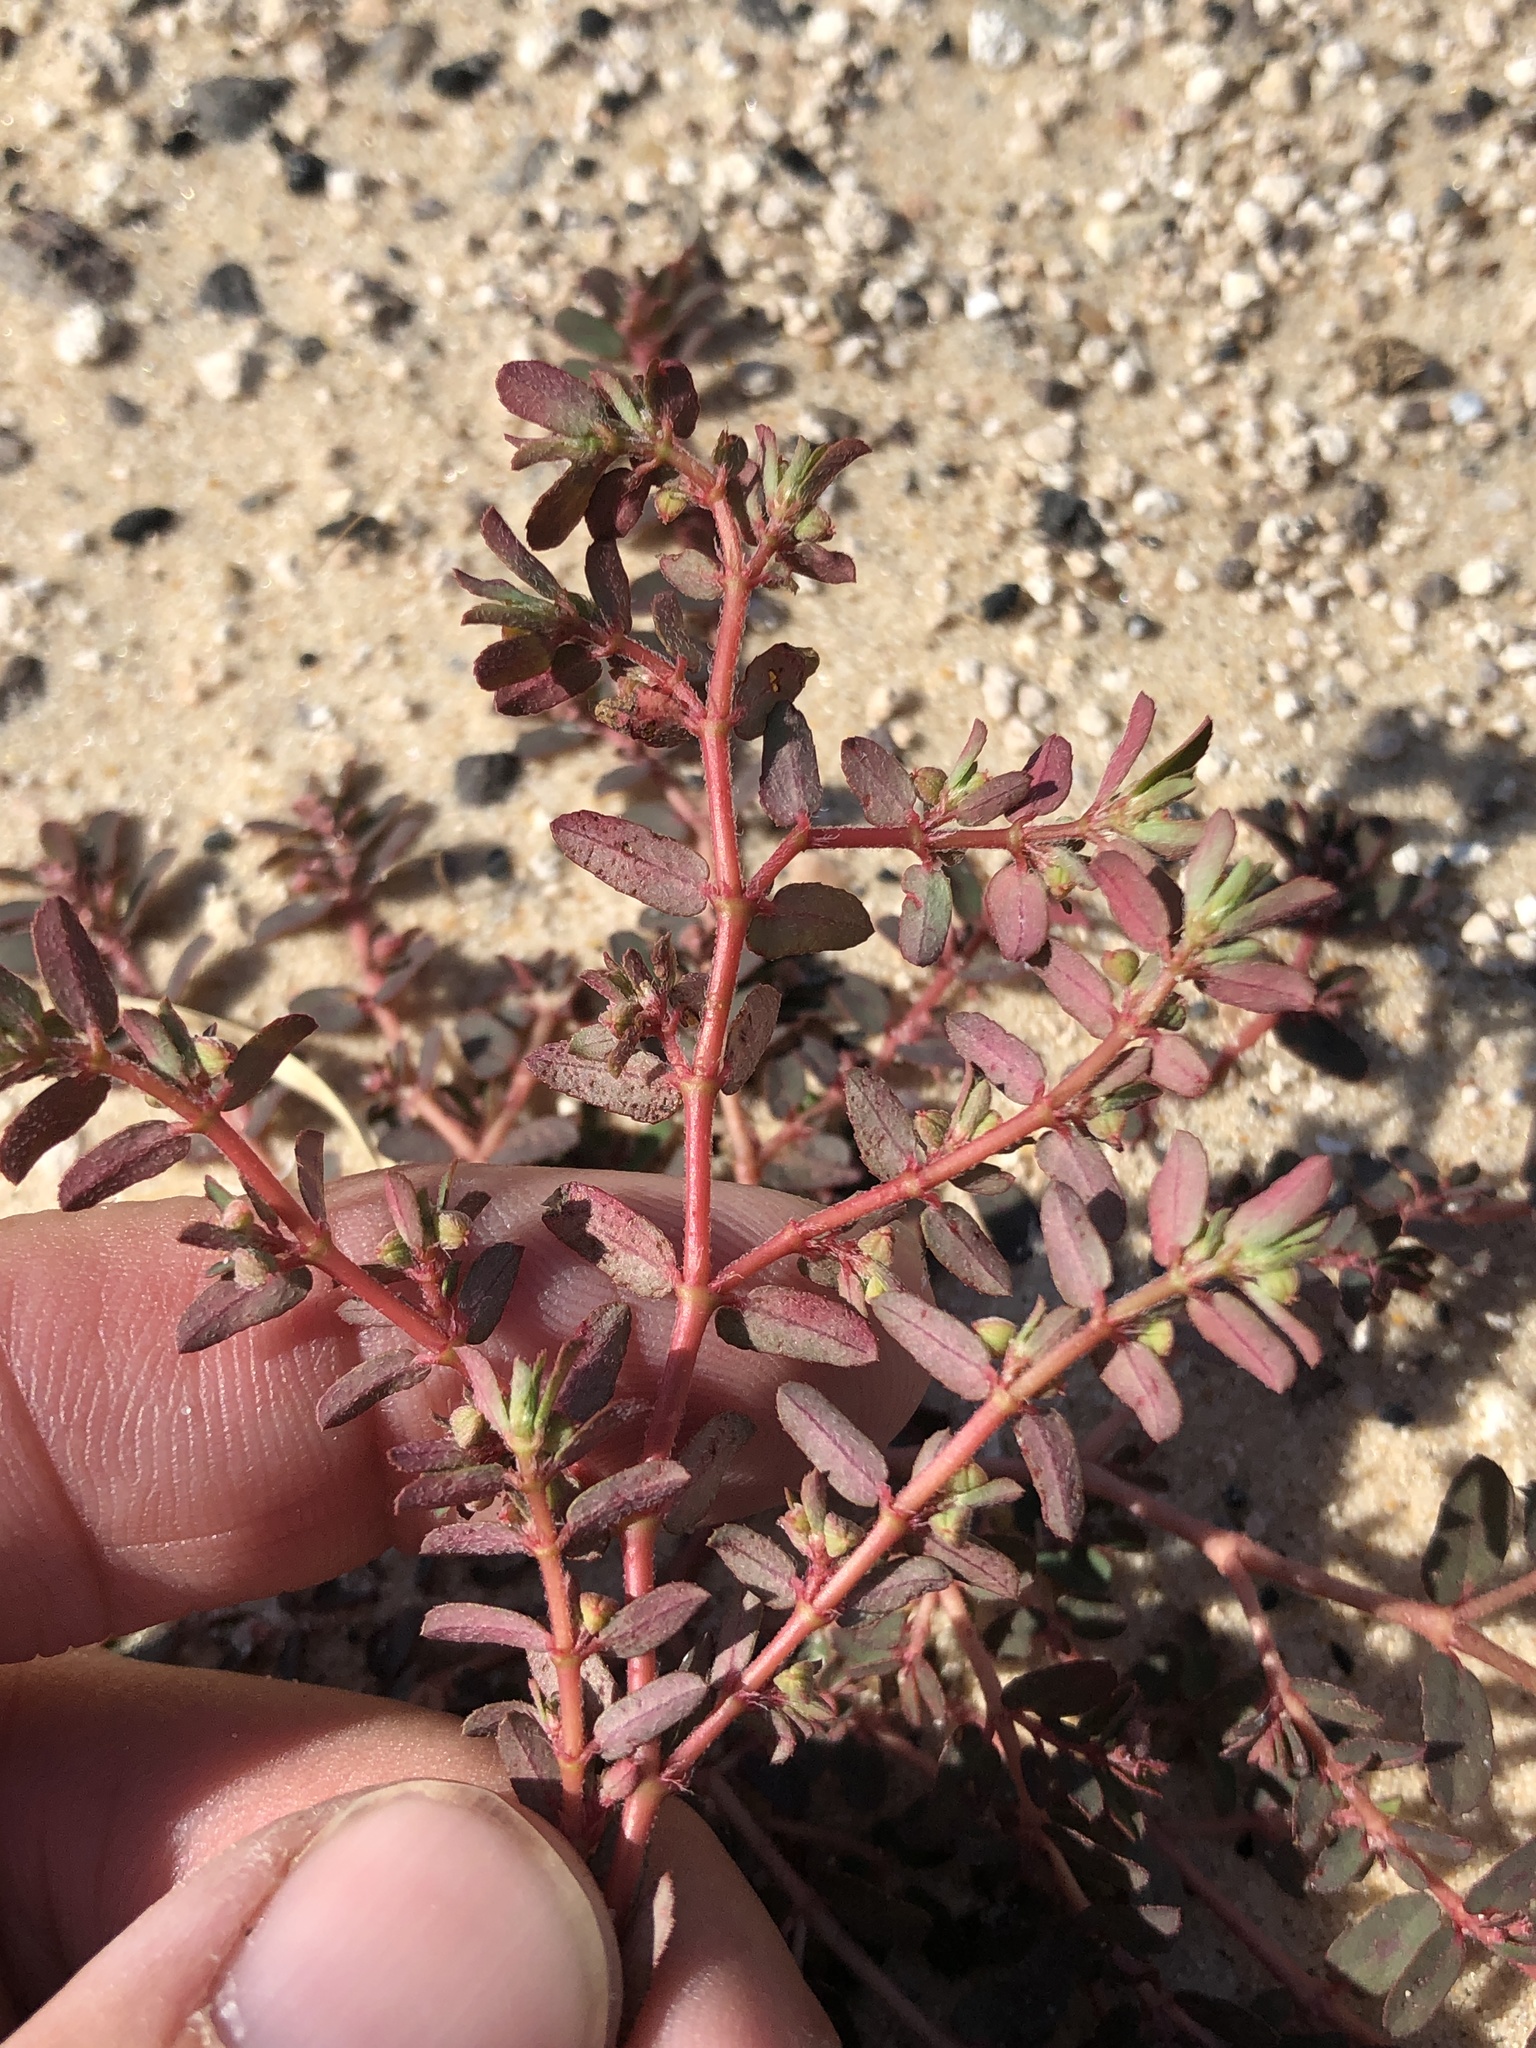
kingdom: Plantae
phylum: Tracheophyta
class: Magnoliopsida
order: Malpighiales
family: Euphorbiaceae
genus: Euphorbia
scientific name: Euphorbia maculata
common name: Spotted spurge
